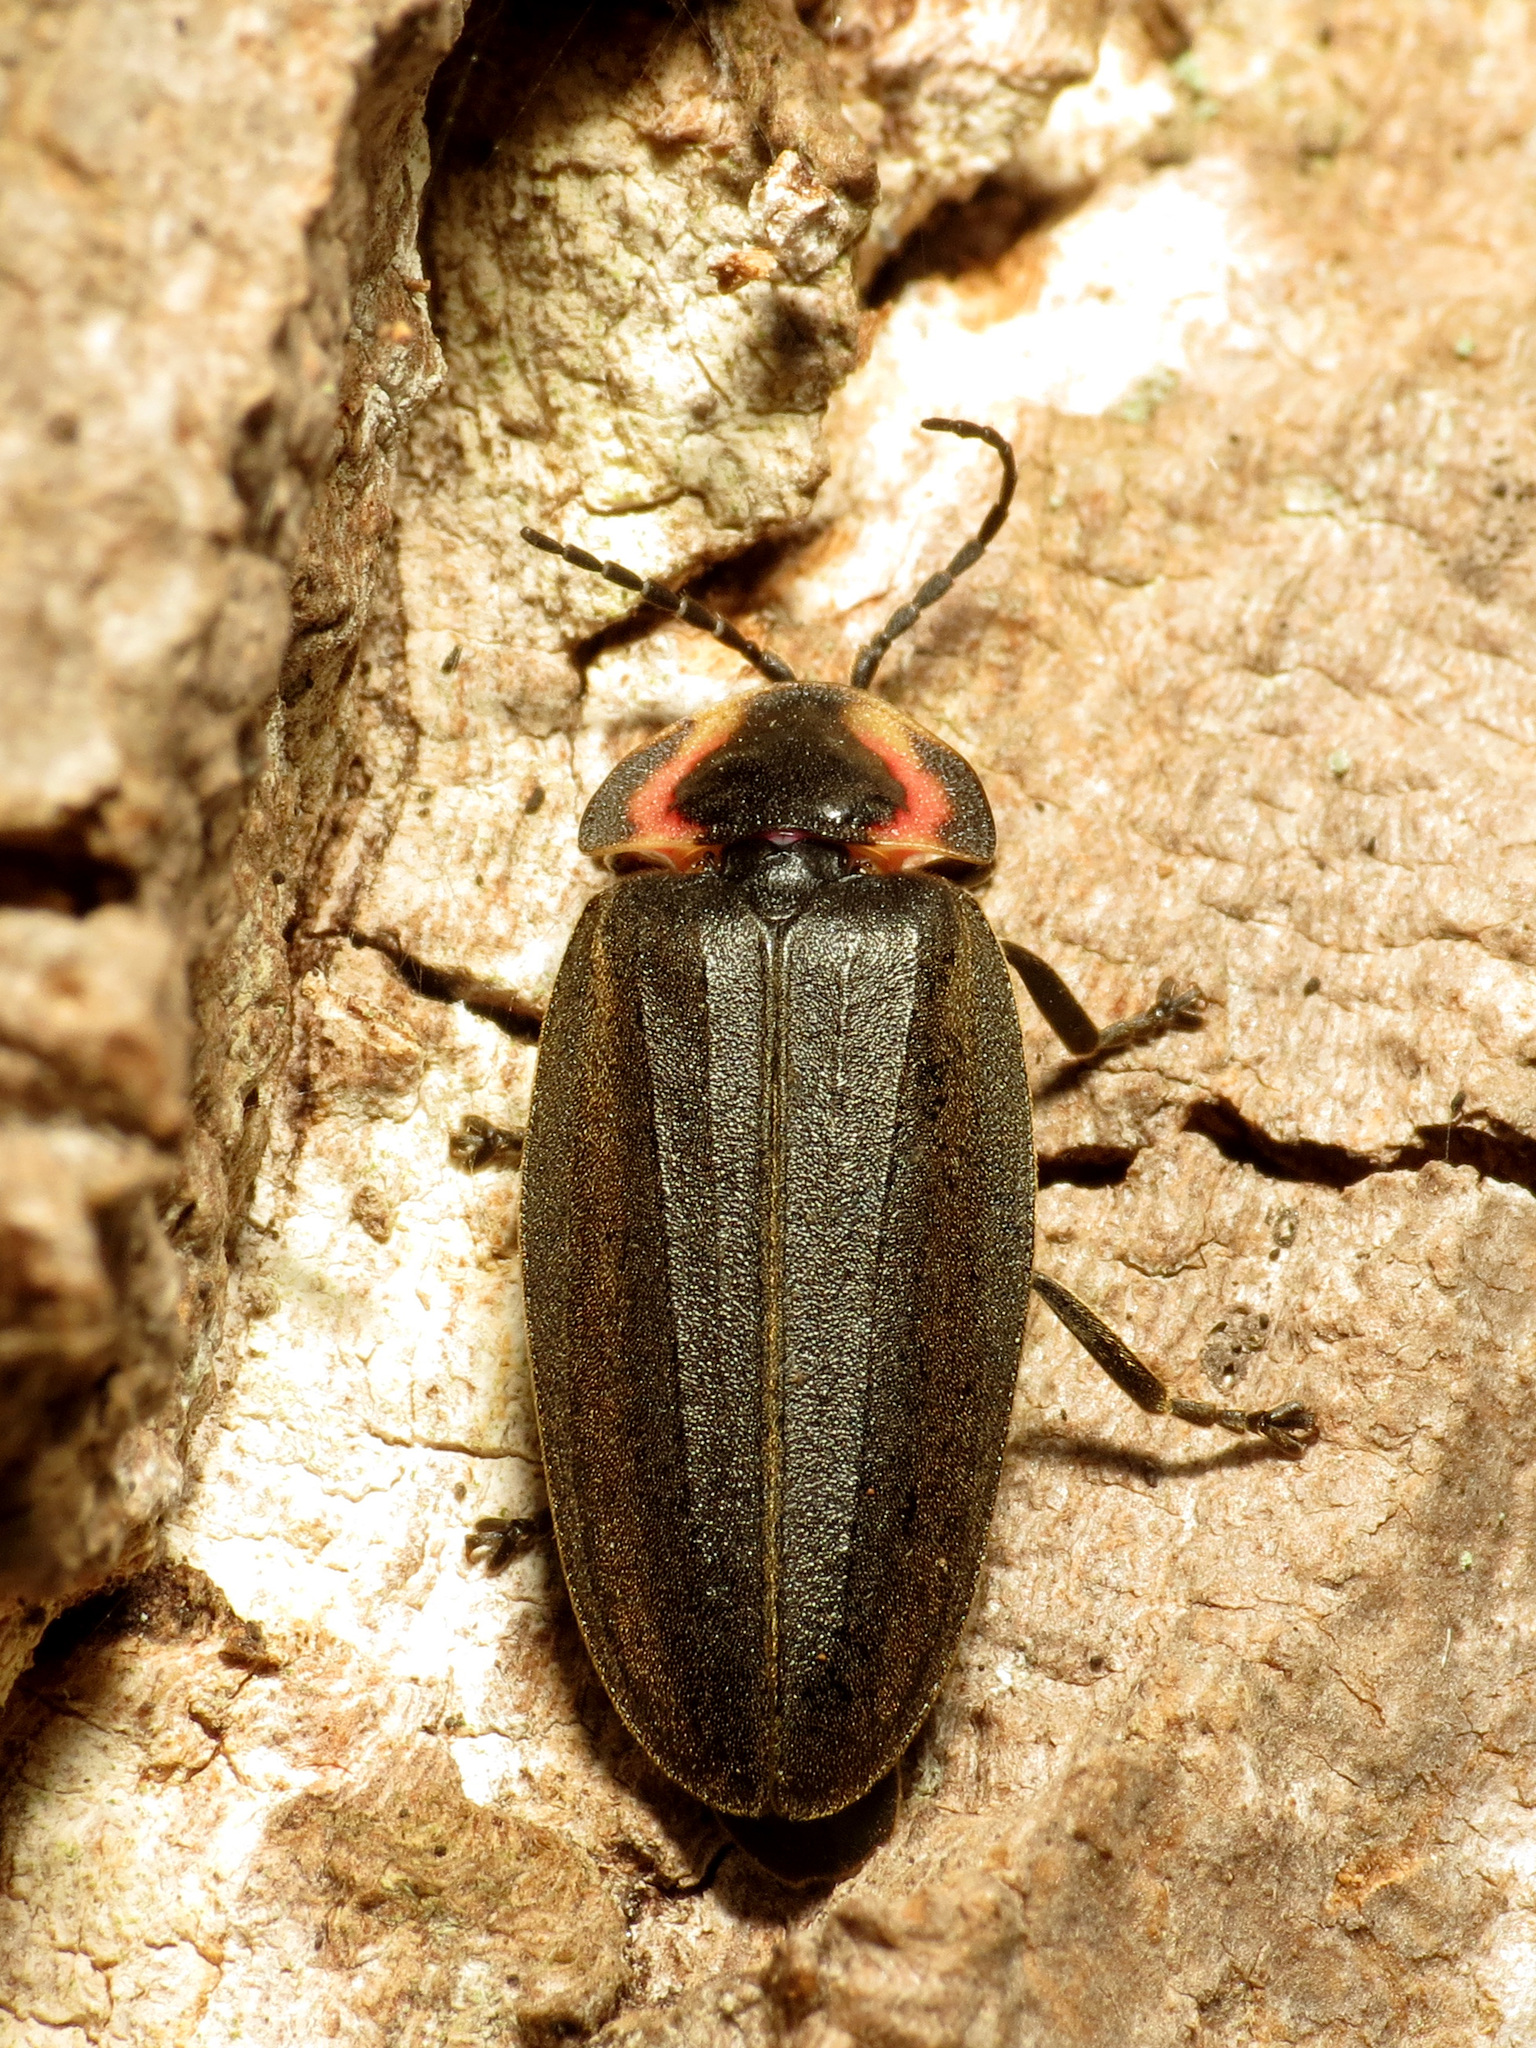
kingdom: Animalia
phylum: Arthropoda
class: Insecta
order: Coleoptera
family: Lampyridae
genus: Photinus
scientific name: Photinus corrusca
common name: Winter firefly
